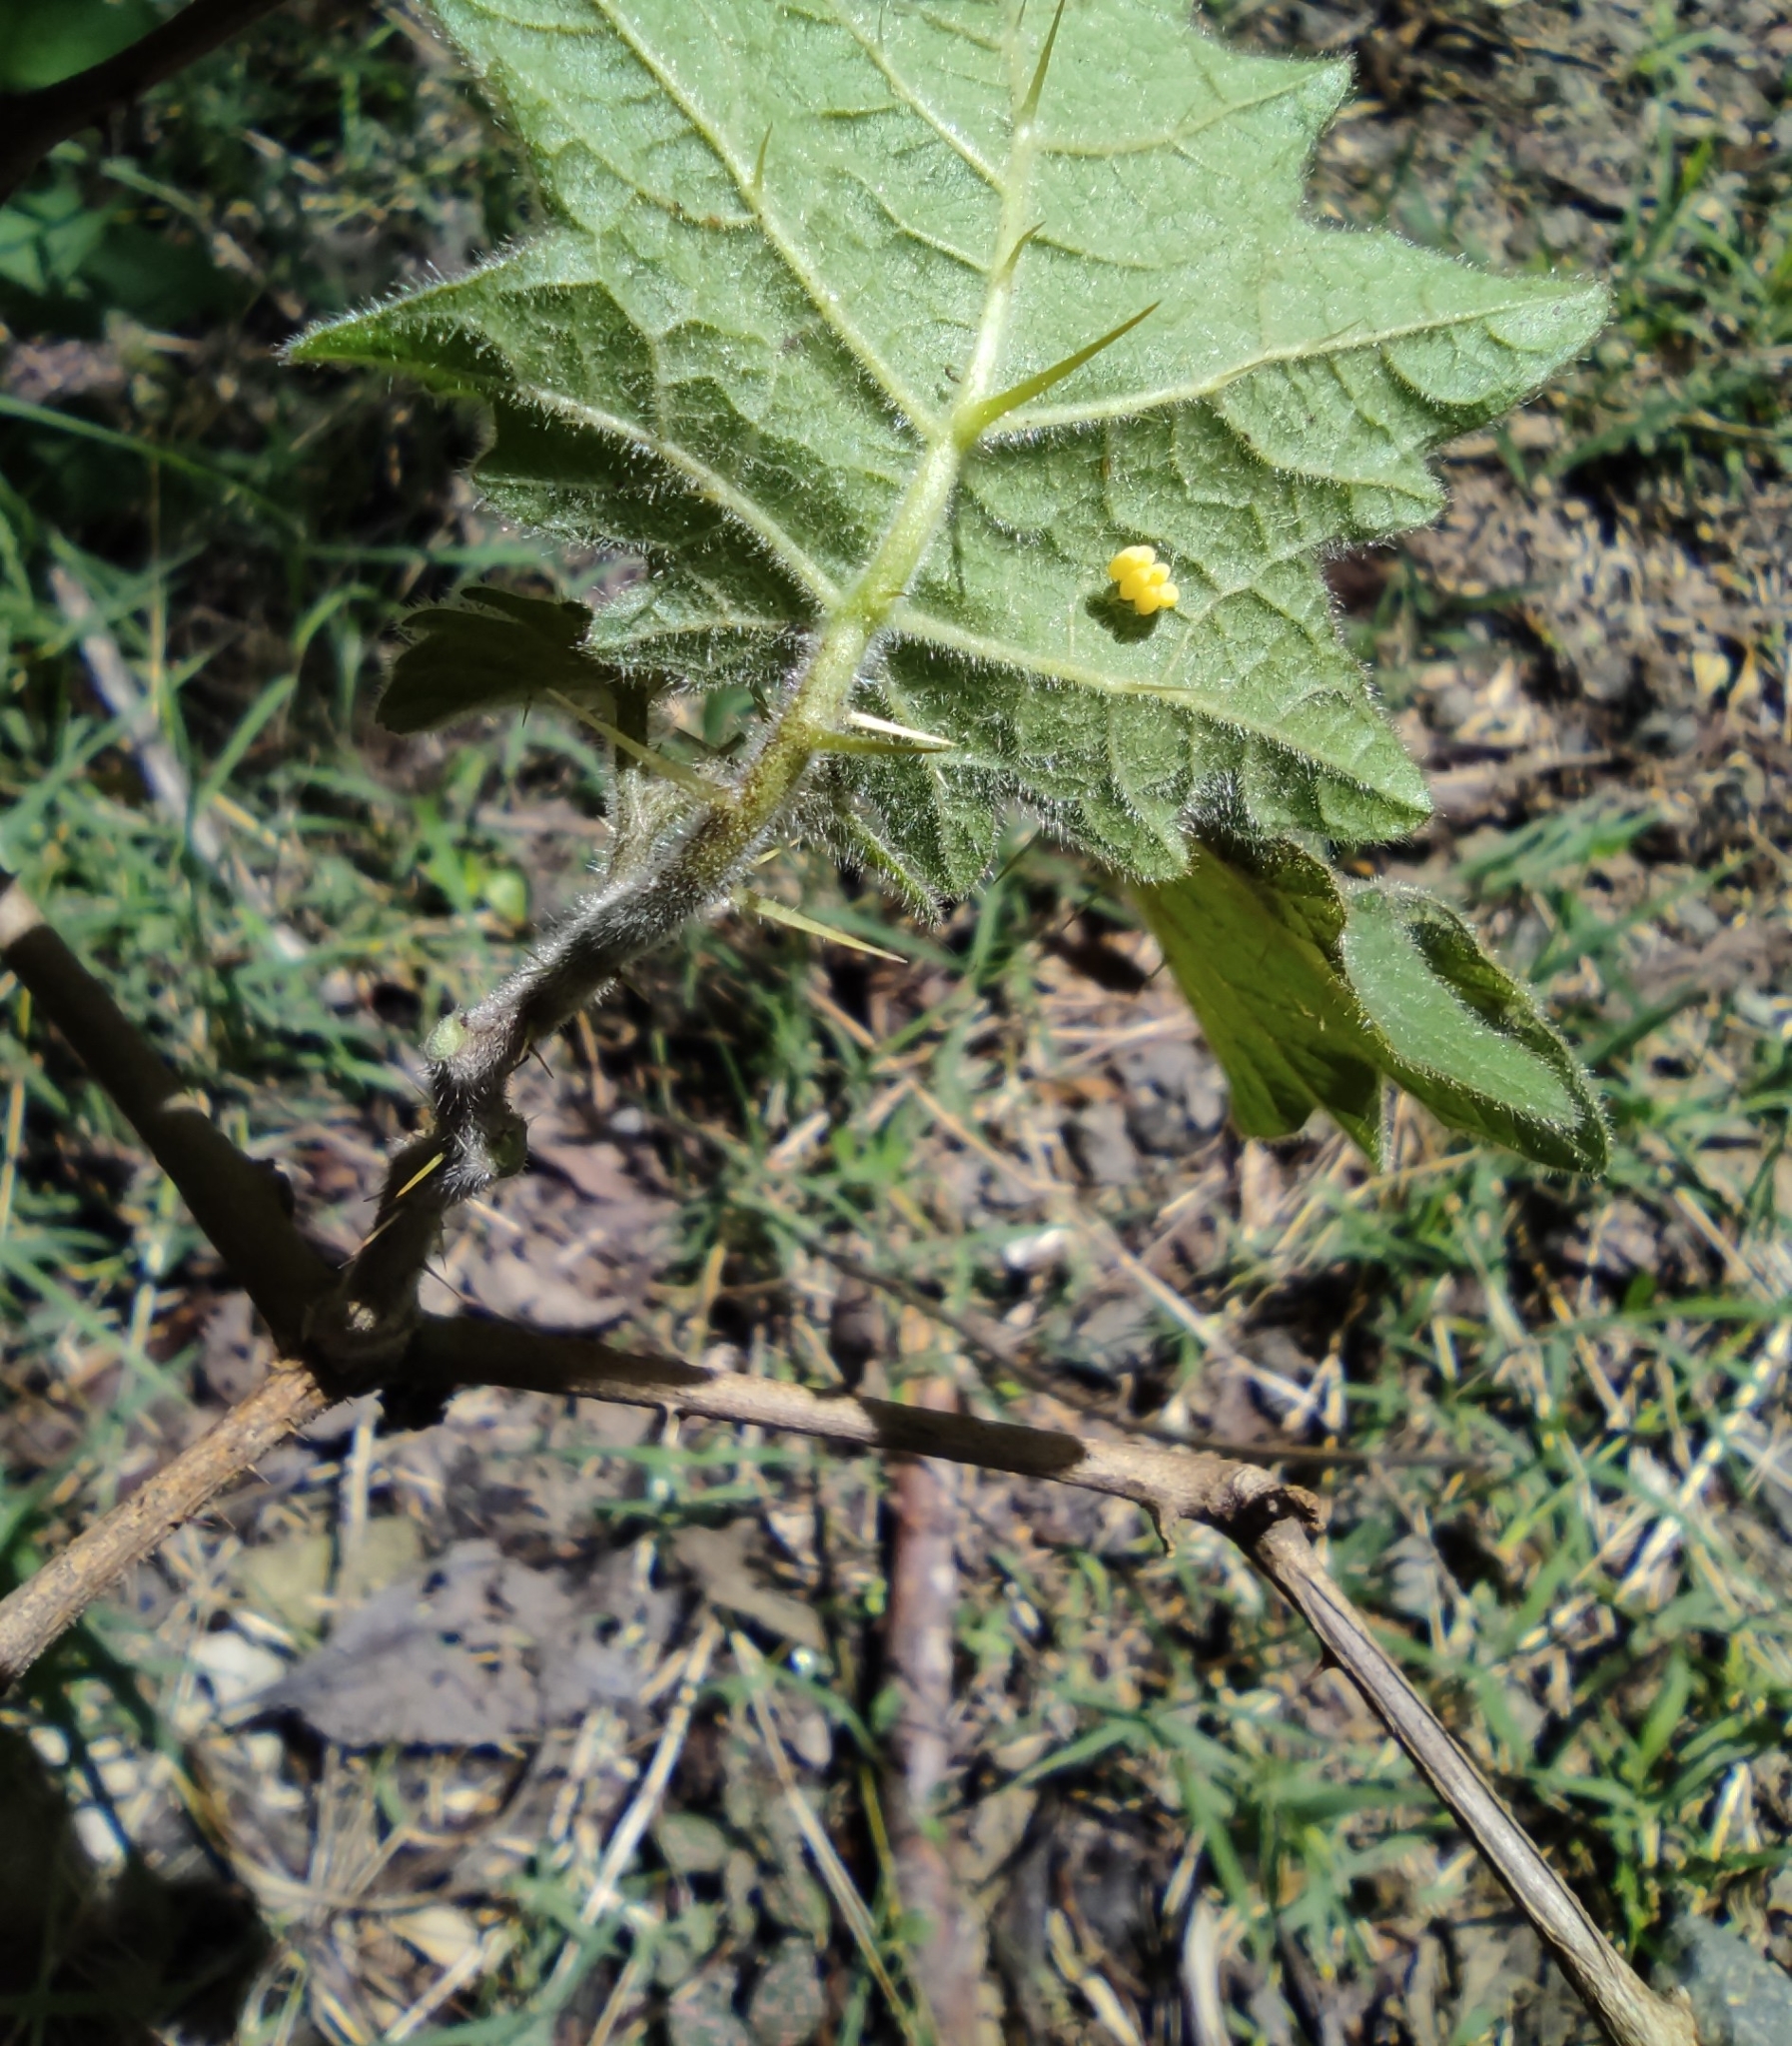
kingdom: Plantae
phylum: Tracheophyta
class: Magnoliopsida
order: Solanales
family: Solanaceae
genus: Solanum
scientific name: Solanum viarum
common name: Tropical soda apple
